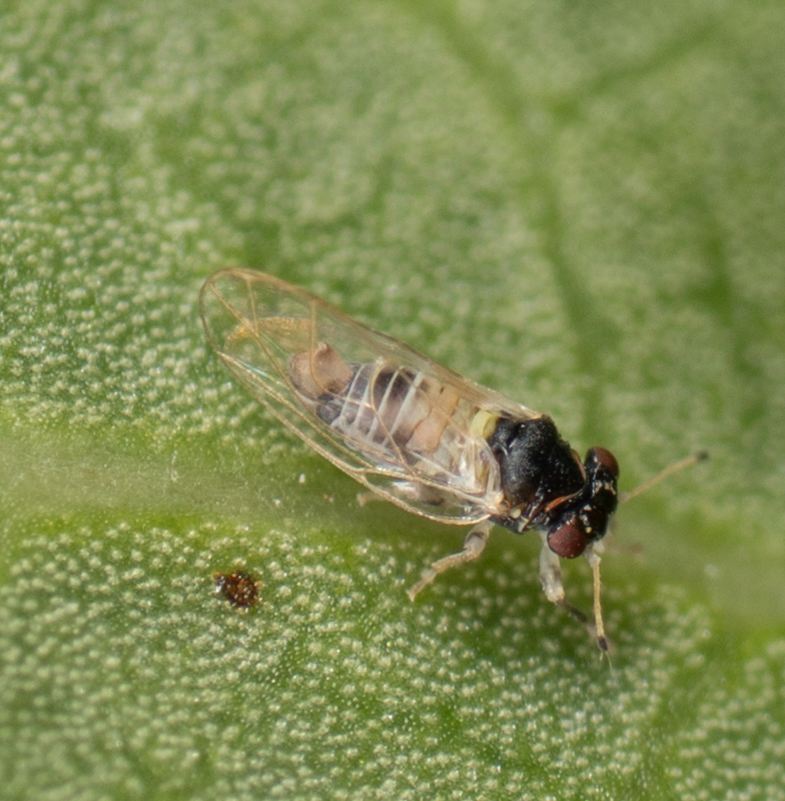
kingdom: Animalia
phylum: Arthropoda
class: Insecta
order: Hemiptera
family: Calophyidae
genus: Calophya
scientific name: Calophya californica
